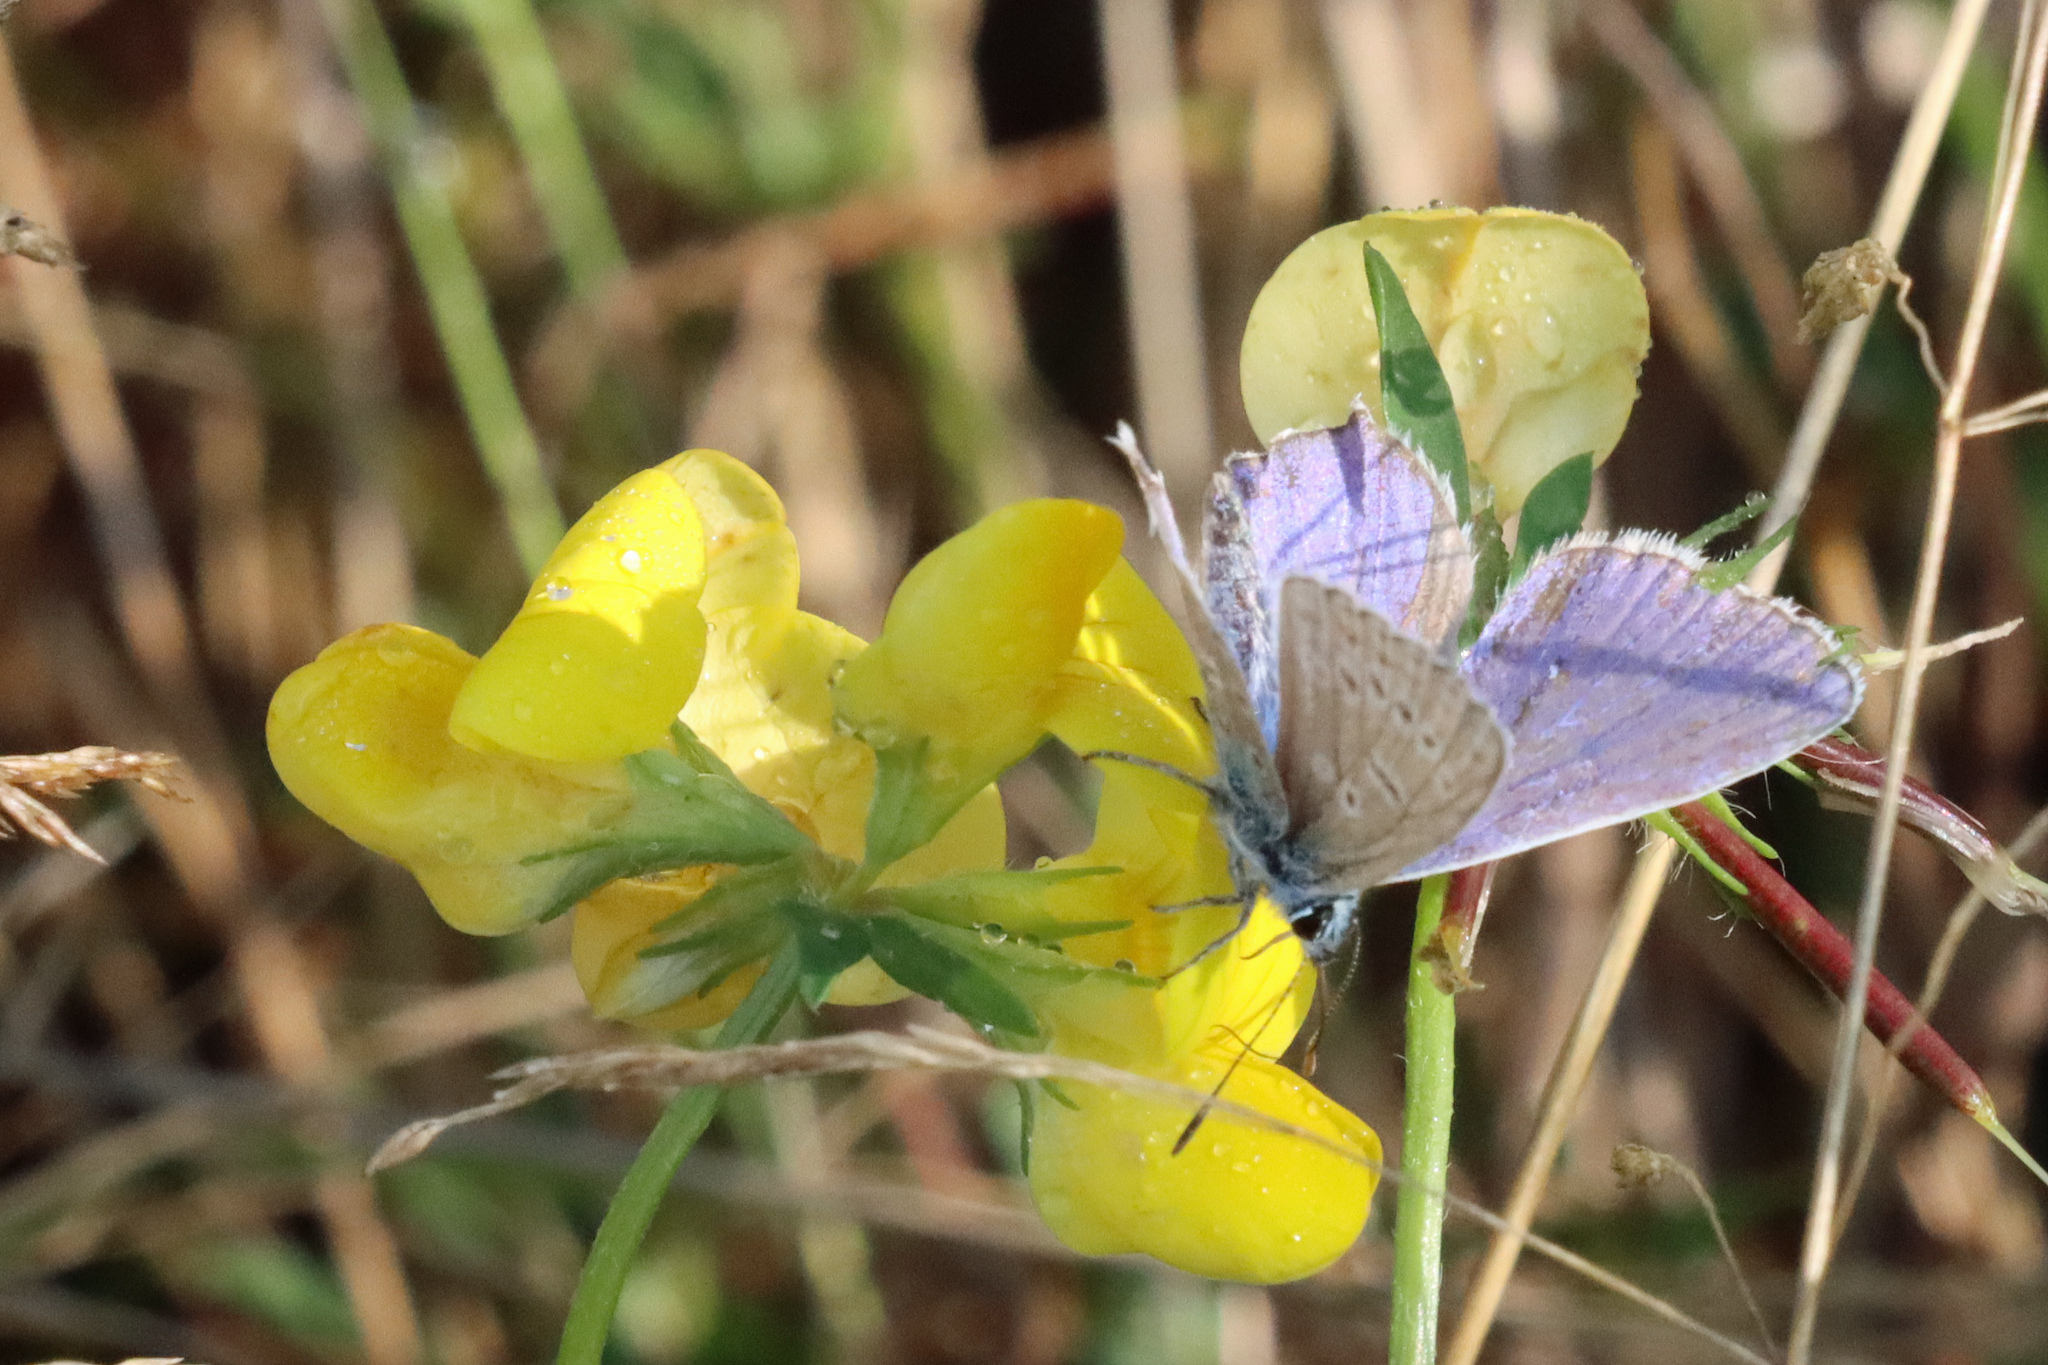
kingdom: Animalia
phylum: Arthropoda
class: Insecta
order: Lepidoptera
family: Lycaenidae
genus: Polyommatus
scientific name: Polyommatus icarus
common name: Common blue
